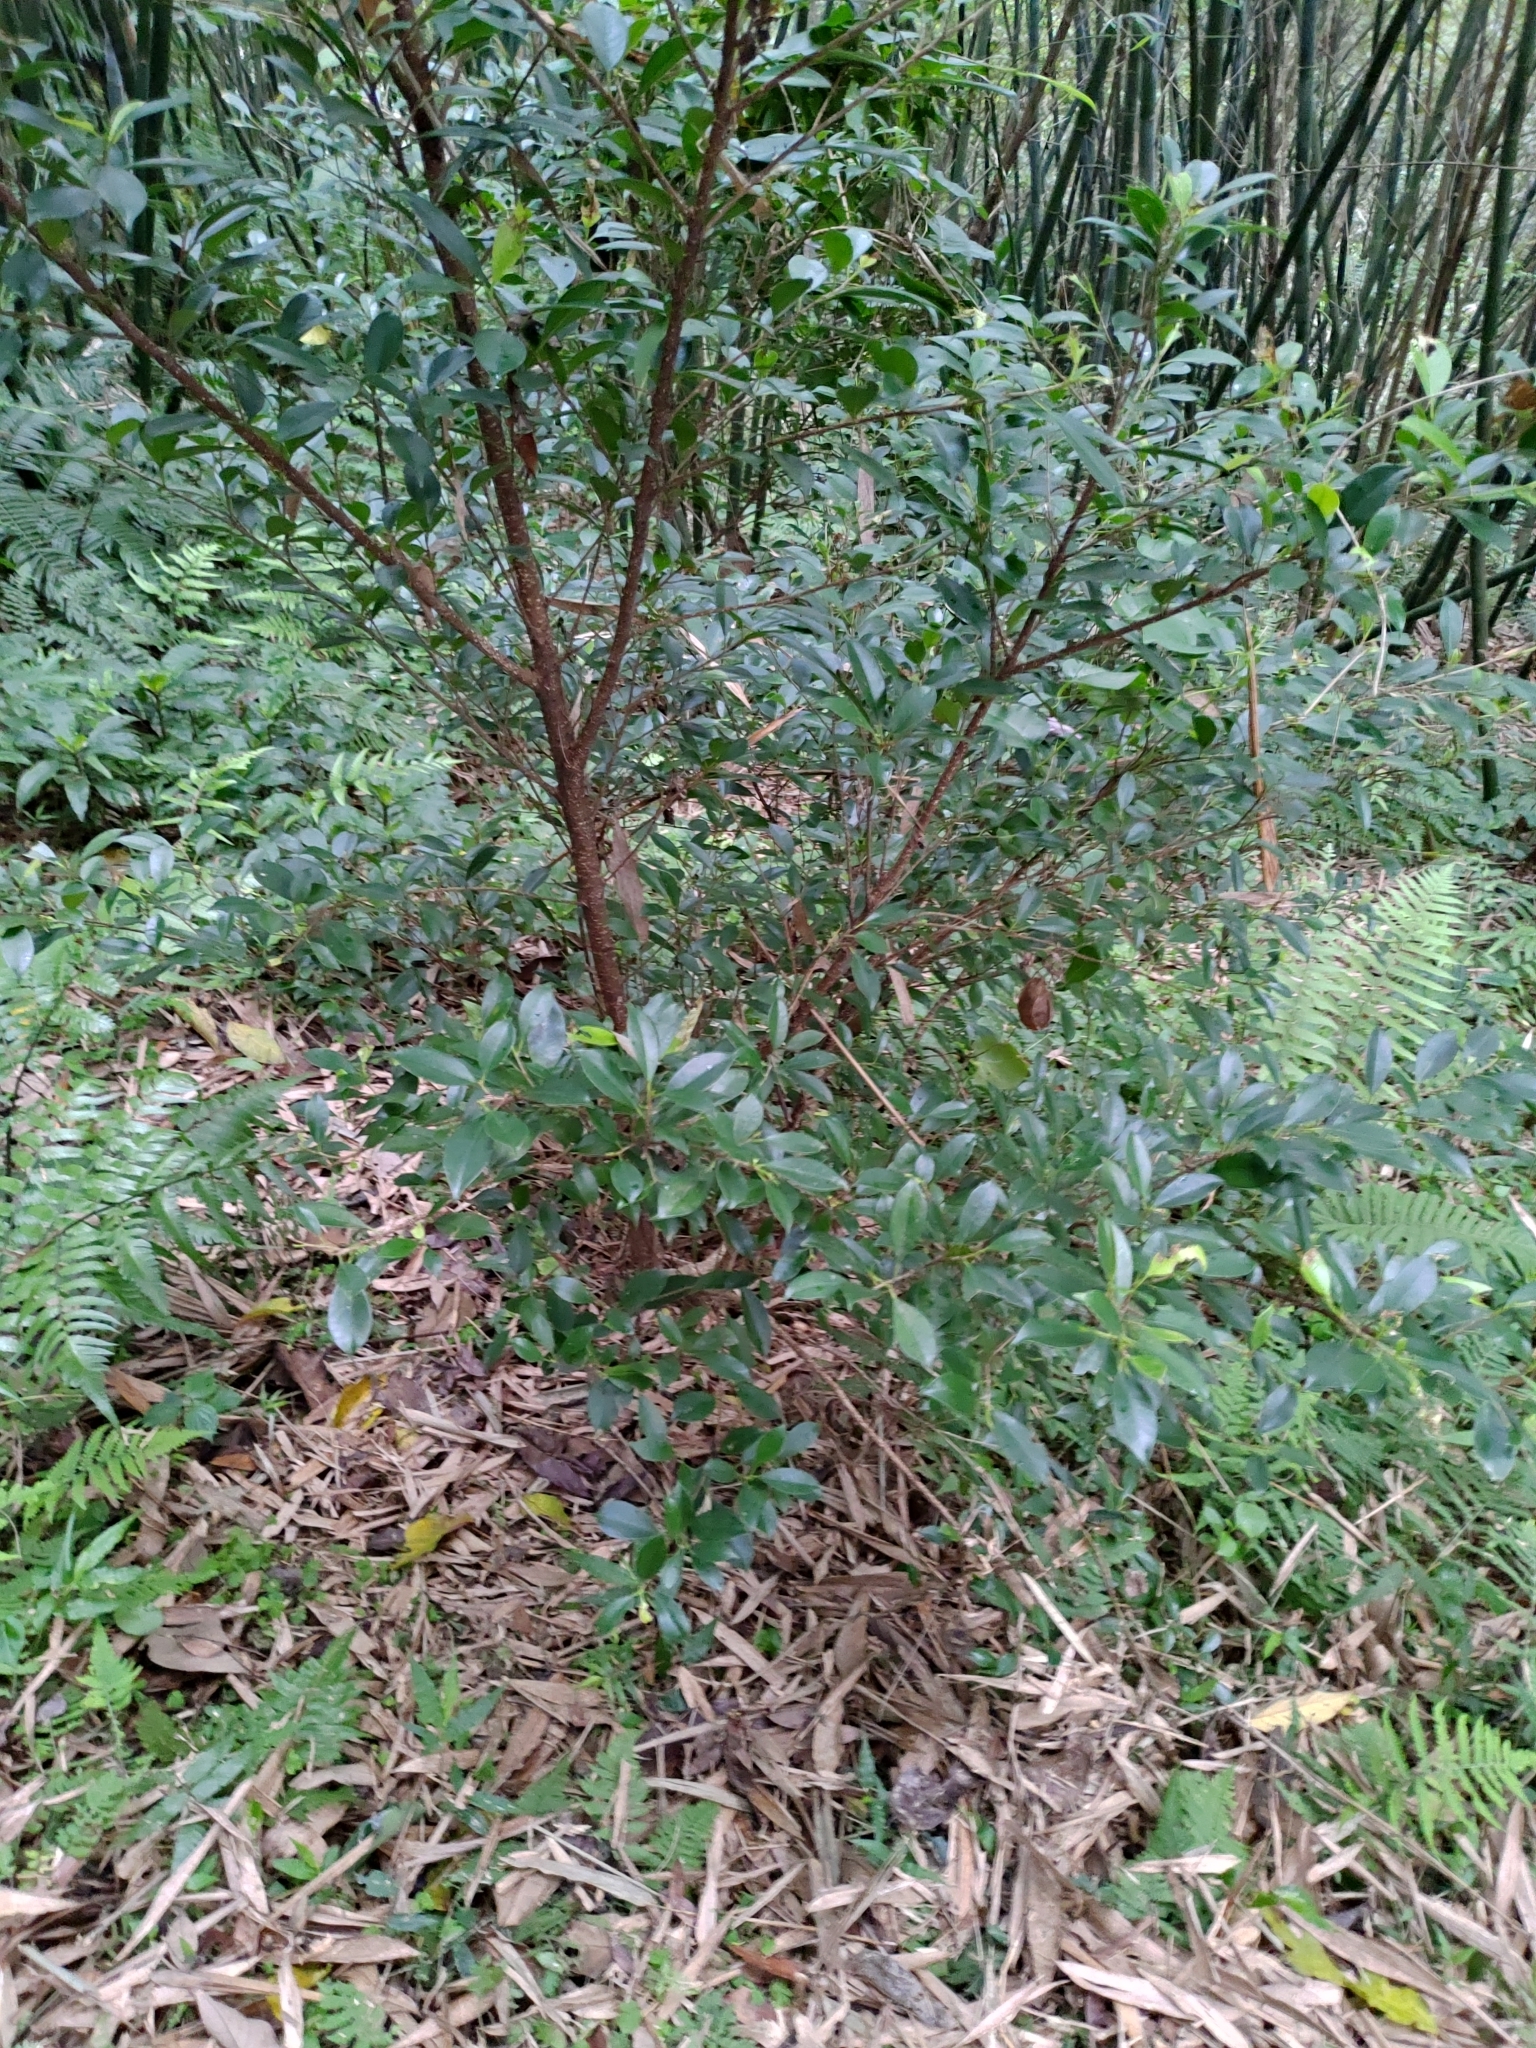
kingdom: Plantae
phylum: Tracheophyta
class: Magnoliopsida
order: Rosales
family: Moraceae
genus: Ficus
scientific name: Ficus microcarpa
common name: Chinese banyan
